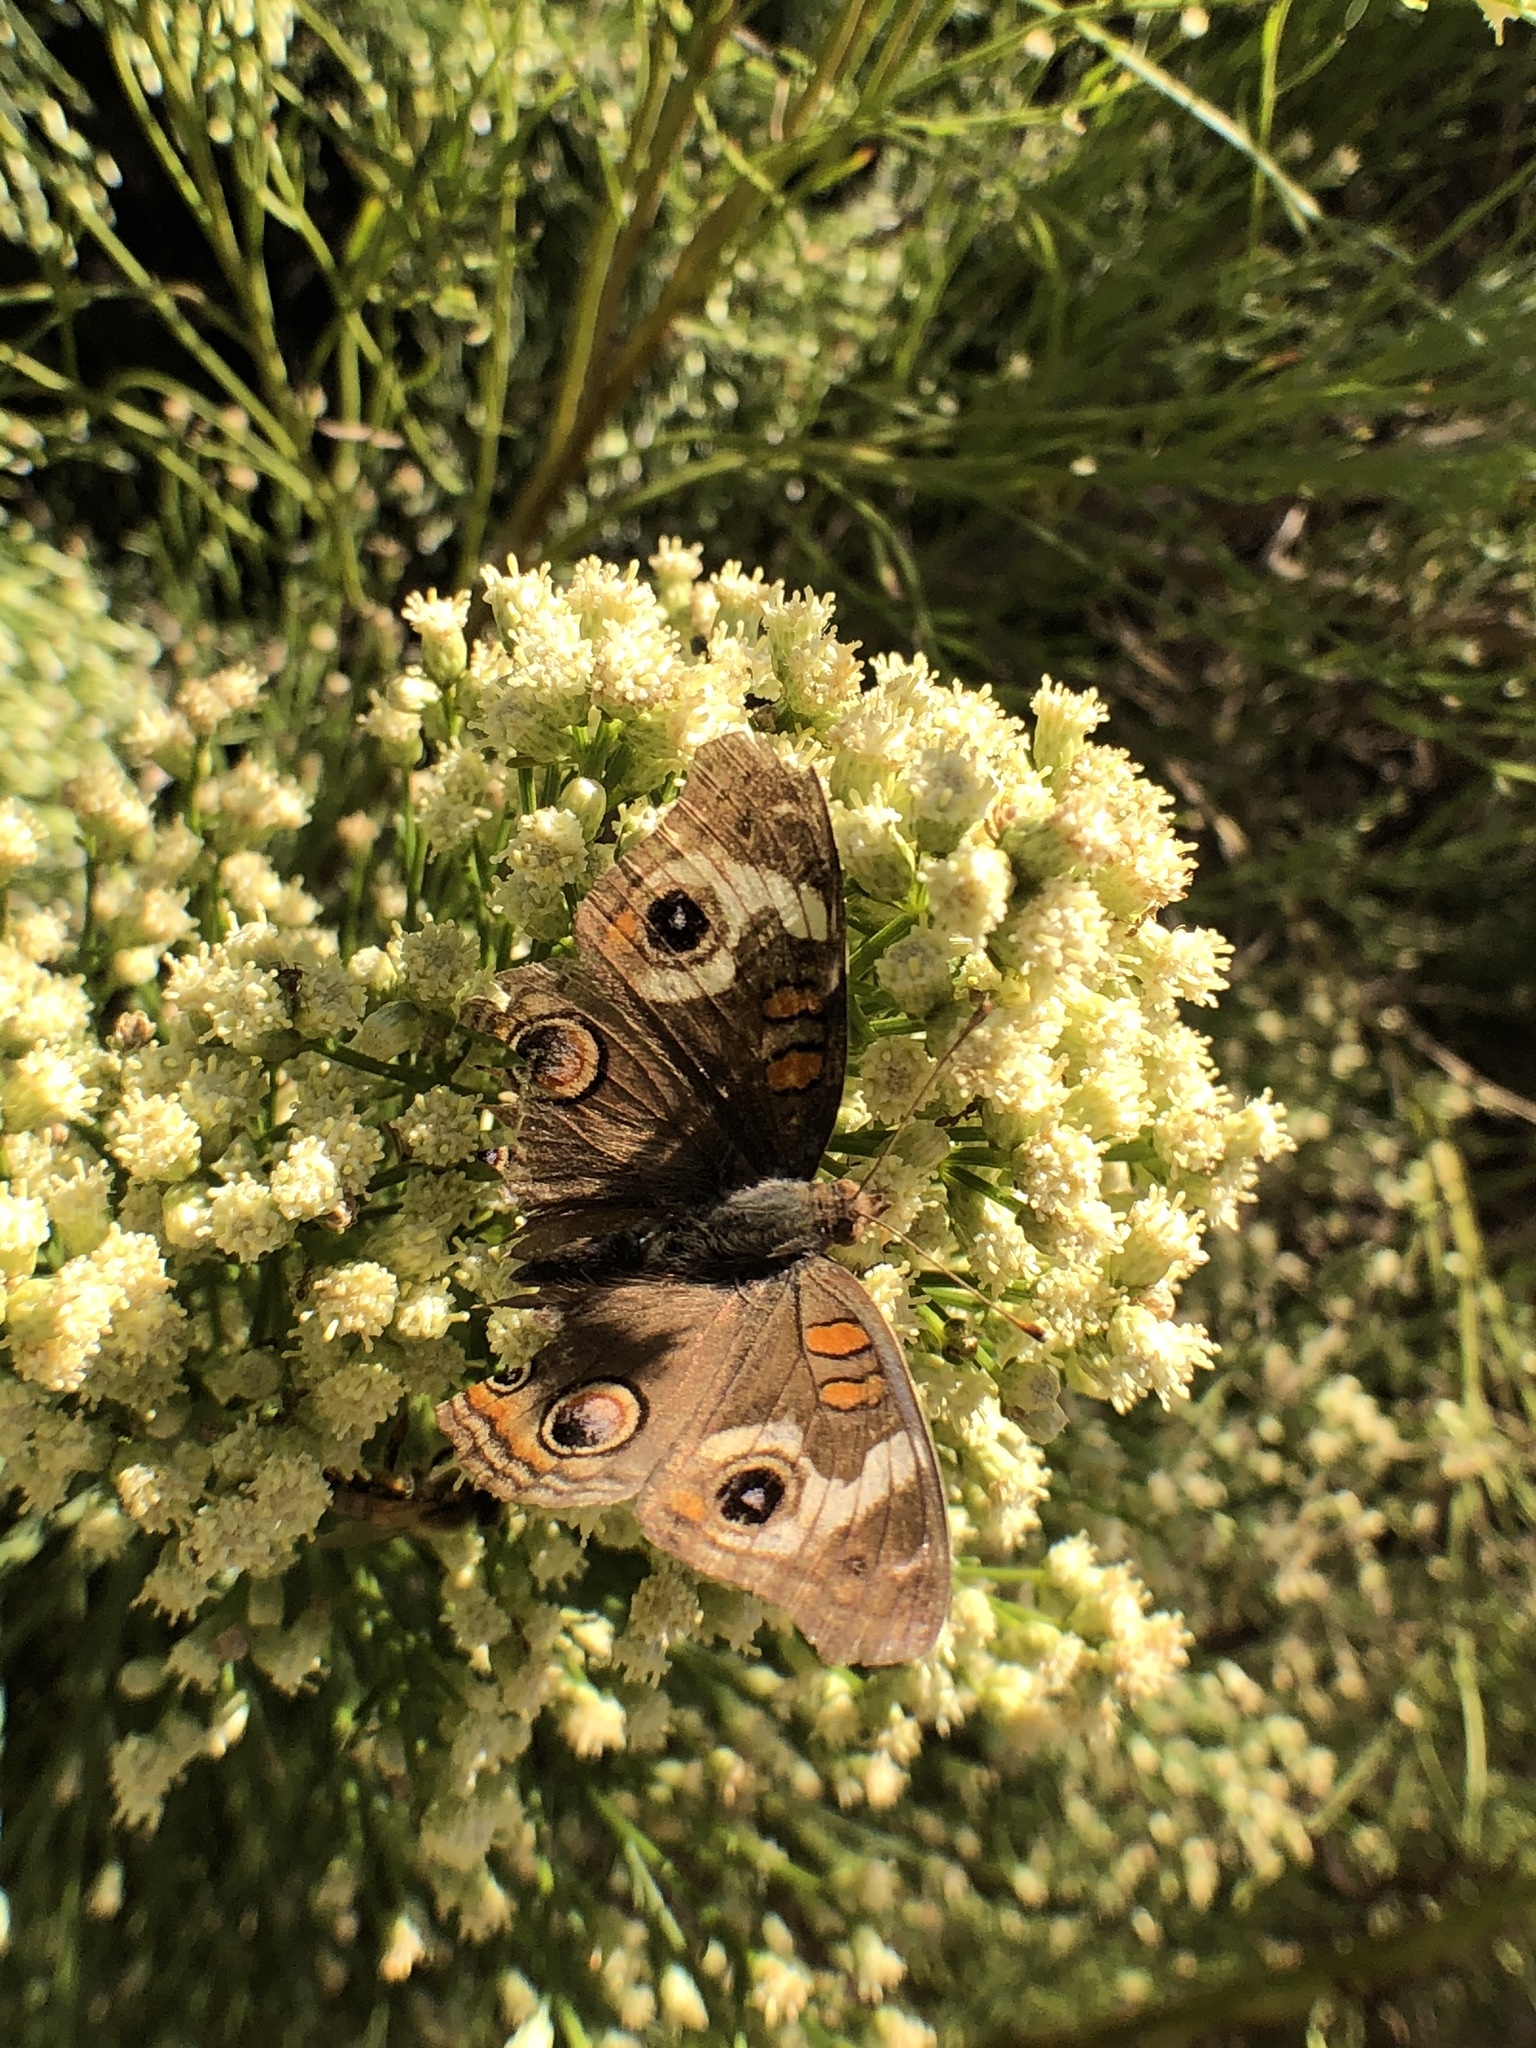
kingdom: Animalia
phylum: Arthropoda
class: Insecta
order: Lepidoptera
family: Nymphalidae
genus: Junonia
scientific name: Junonia grisea
